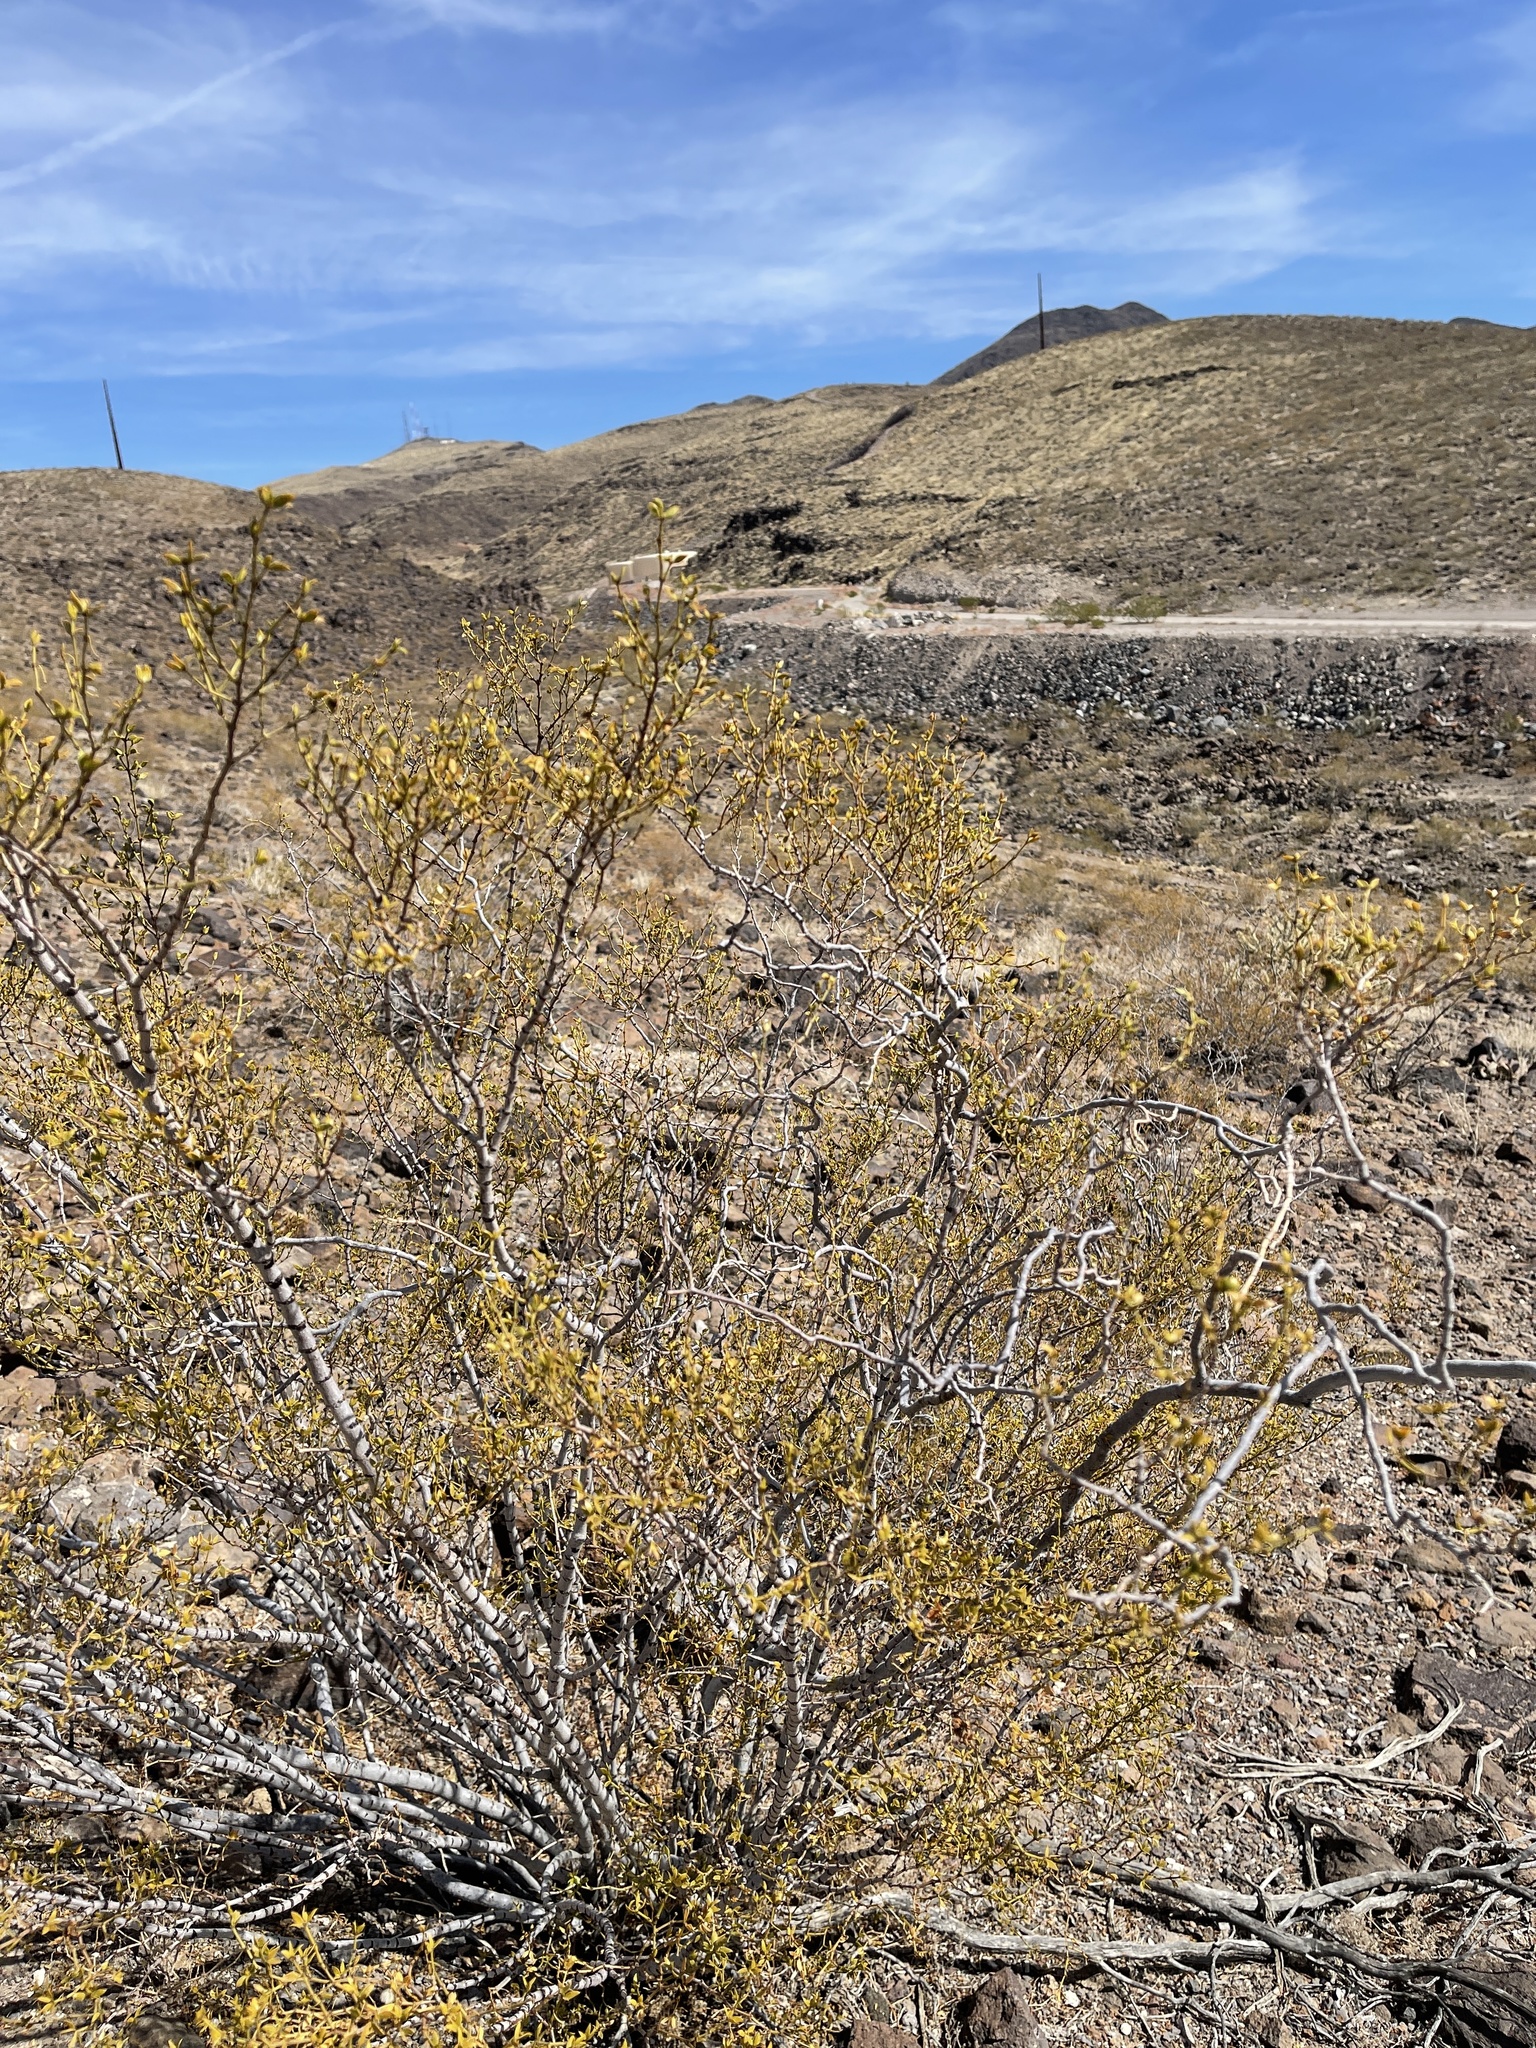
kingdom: Plantae
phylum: Tracheophyta
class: Magnoliopsida
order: Zygophyllales
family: Zygophyllaceae
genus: Larrea
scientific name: Larrea tridentata
